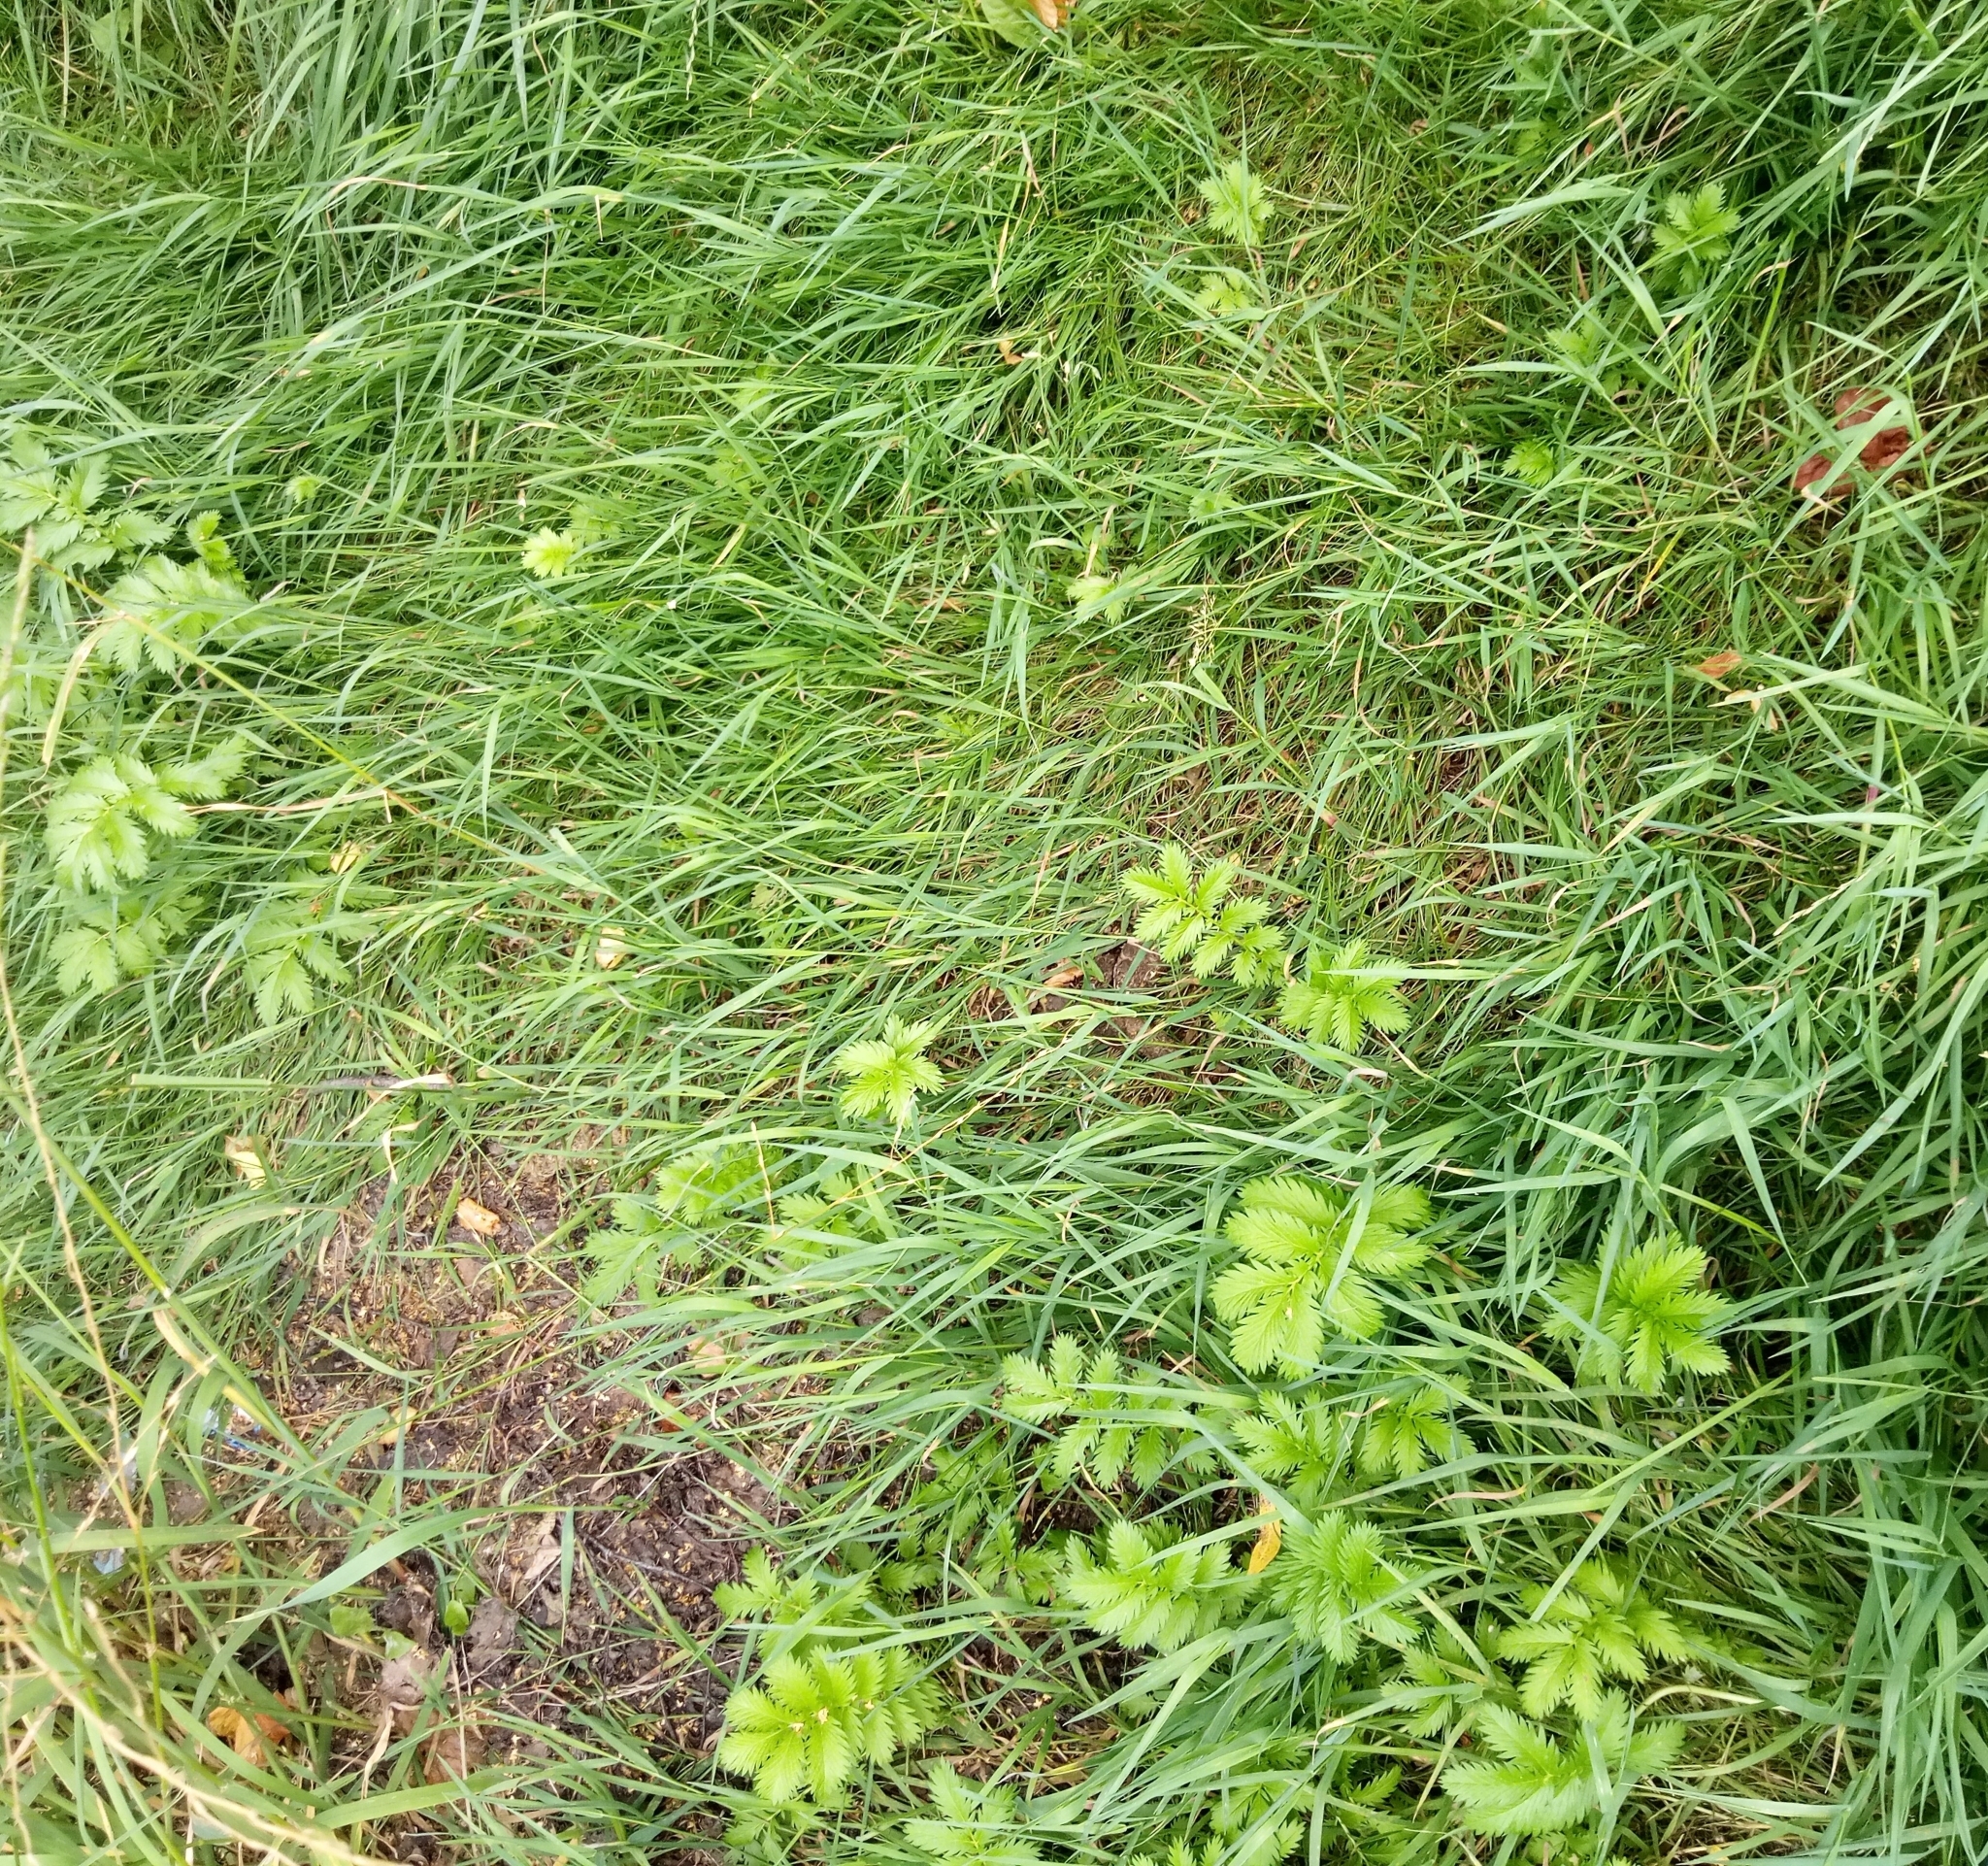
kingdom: Plantae
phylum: Tracheophyta
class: Magnoliopsida
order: Rosales
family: Rosaceae
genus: Argentina
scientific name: Argentina anserina
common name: Common silverweed
